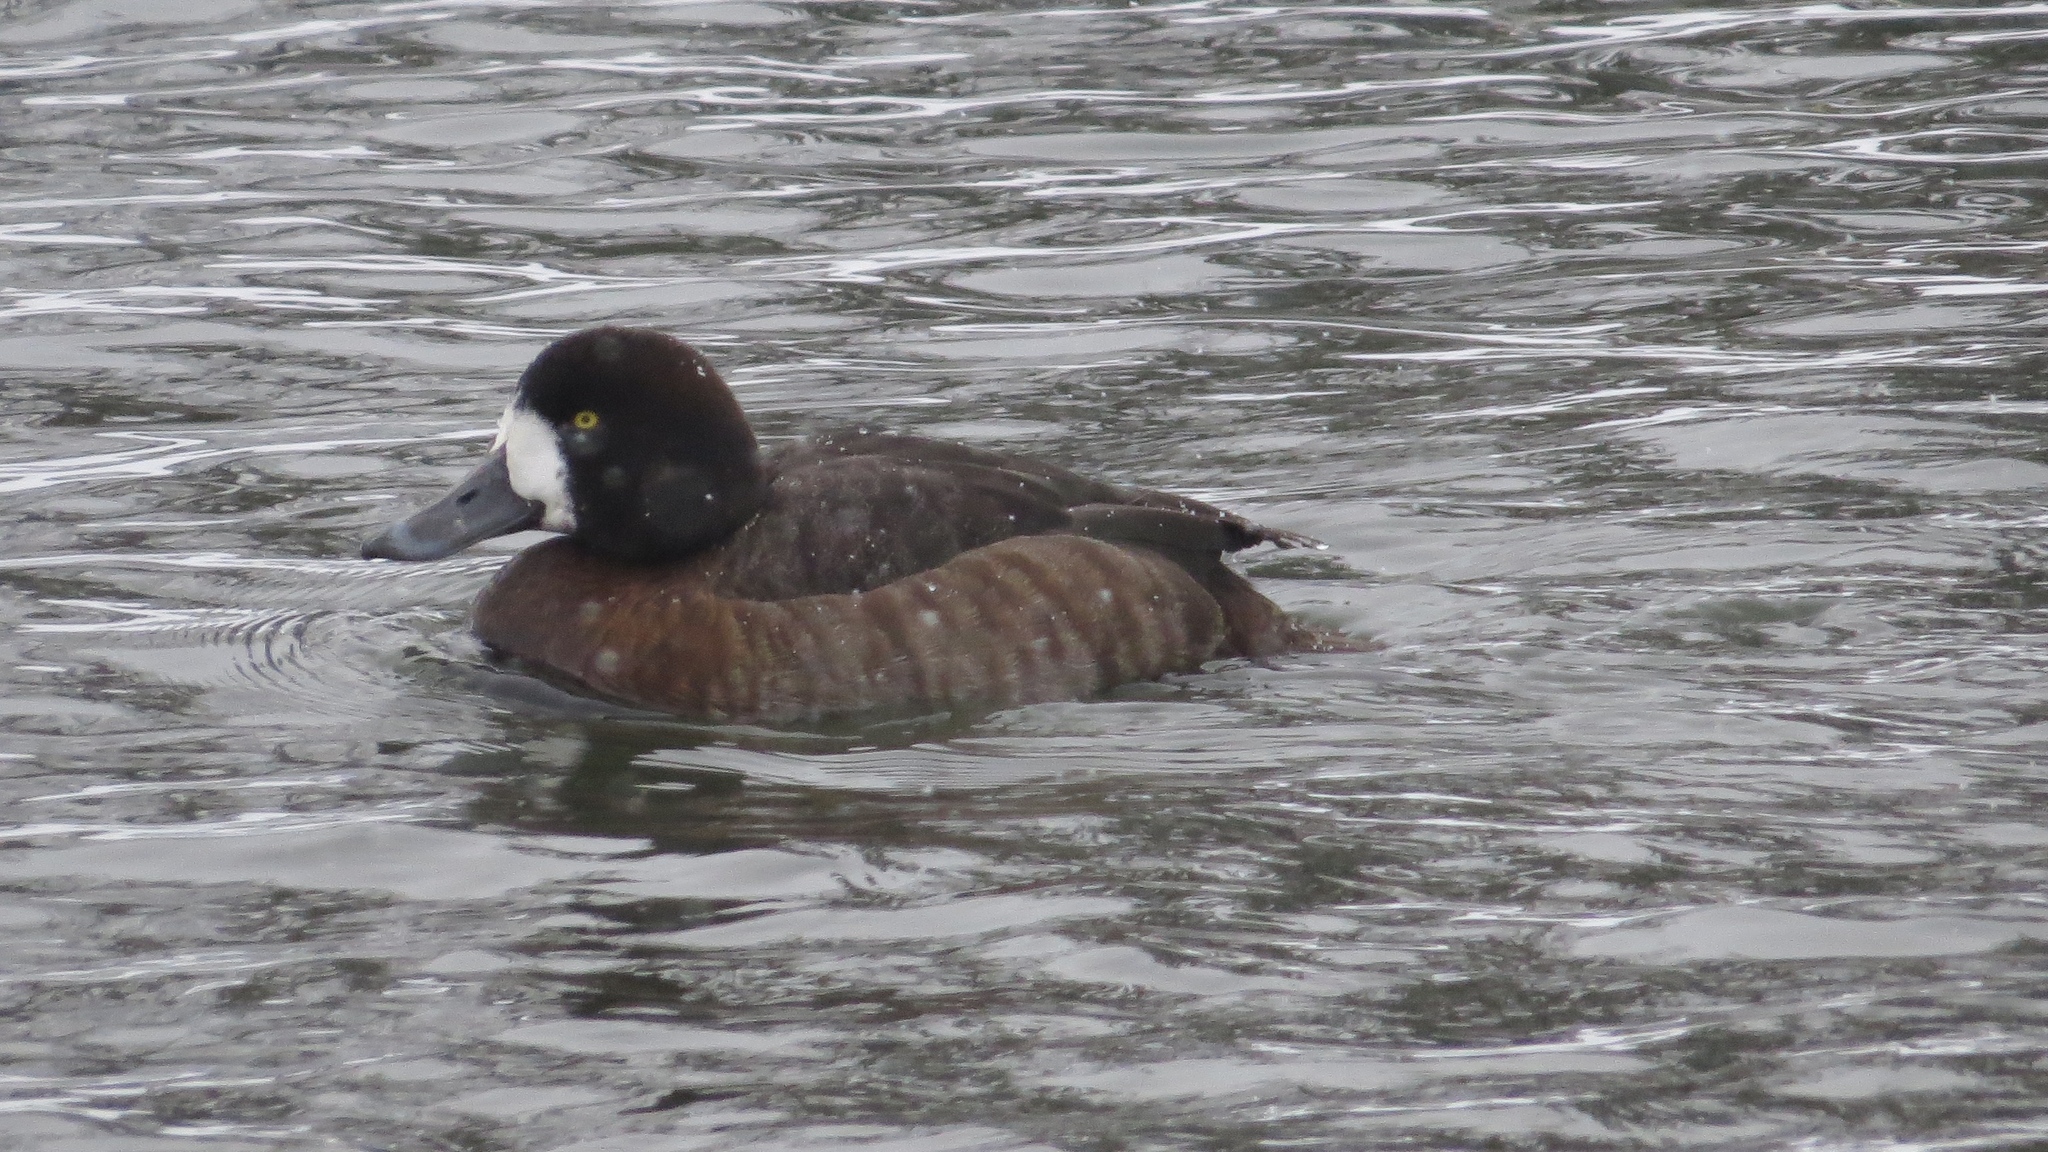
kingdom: Animalia
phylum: Chordata
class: Aves
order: Anseriformes
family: Anatidae
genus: Aythya
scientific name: Aythya marila
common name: Greater scaup
